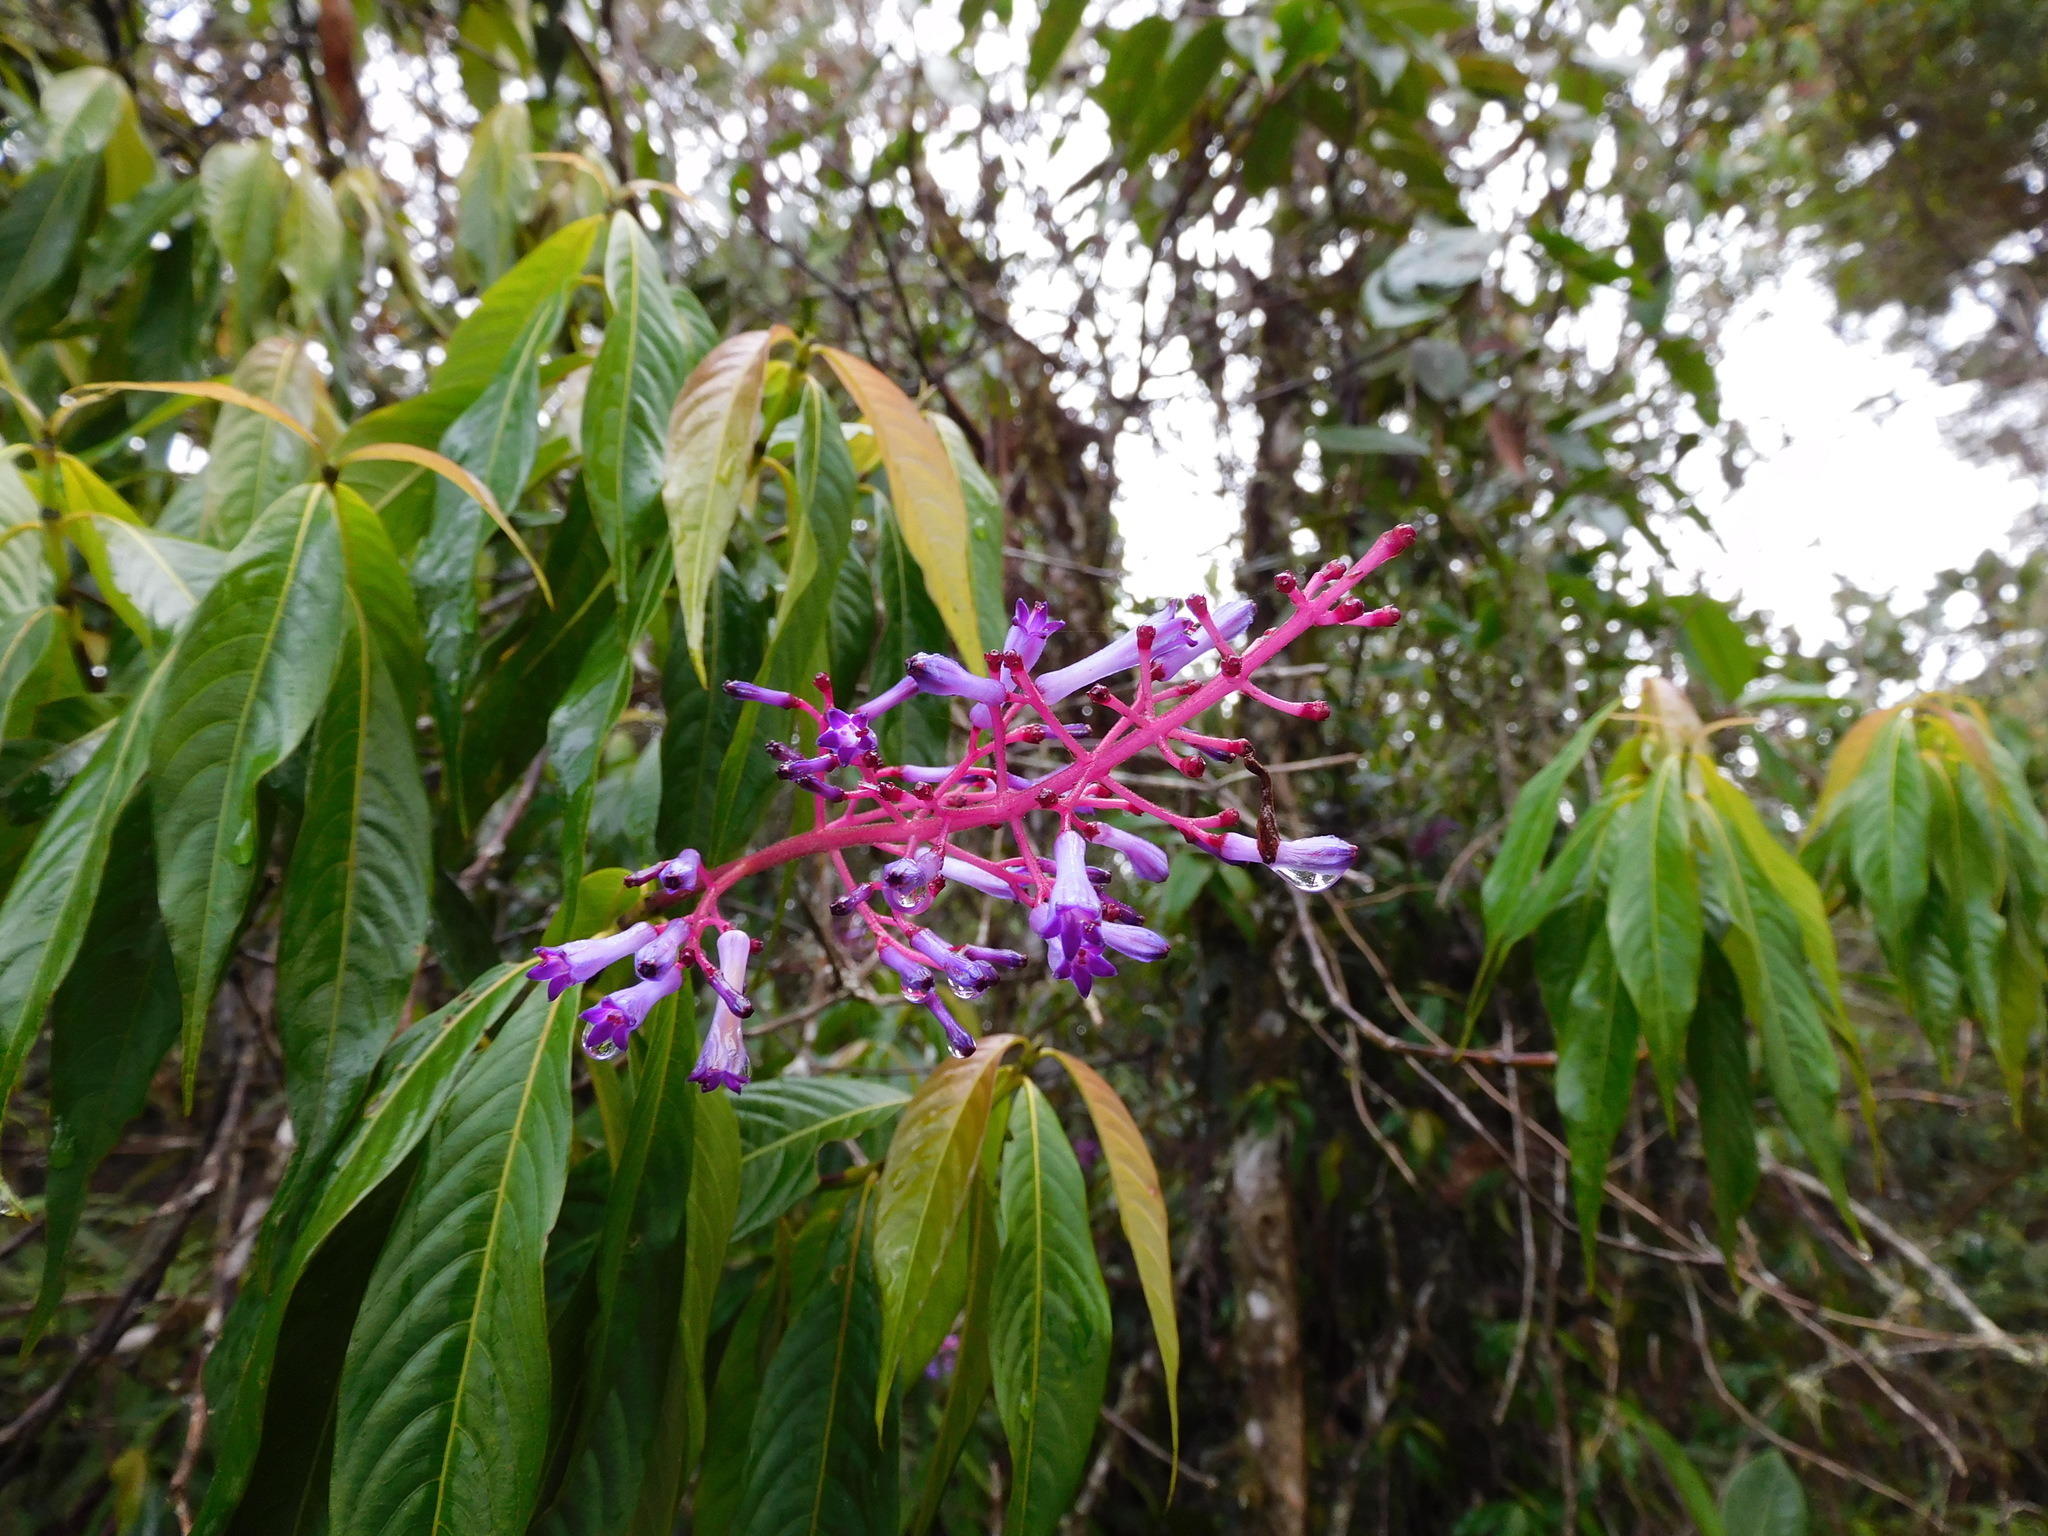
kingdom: Plantae
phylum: Tracheophyta
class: Magnoliopsida
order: Gentianales
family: Rubiaceae
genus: Palicourea
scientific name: Palicourea angustifolia
